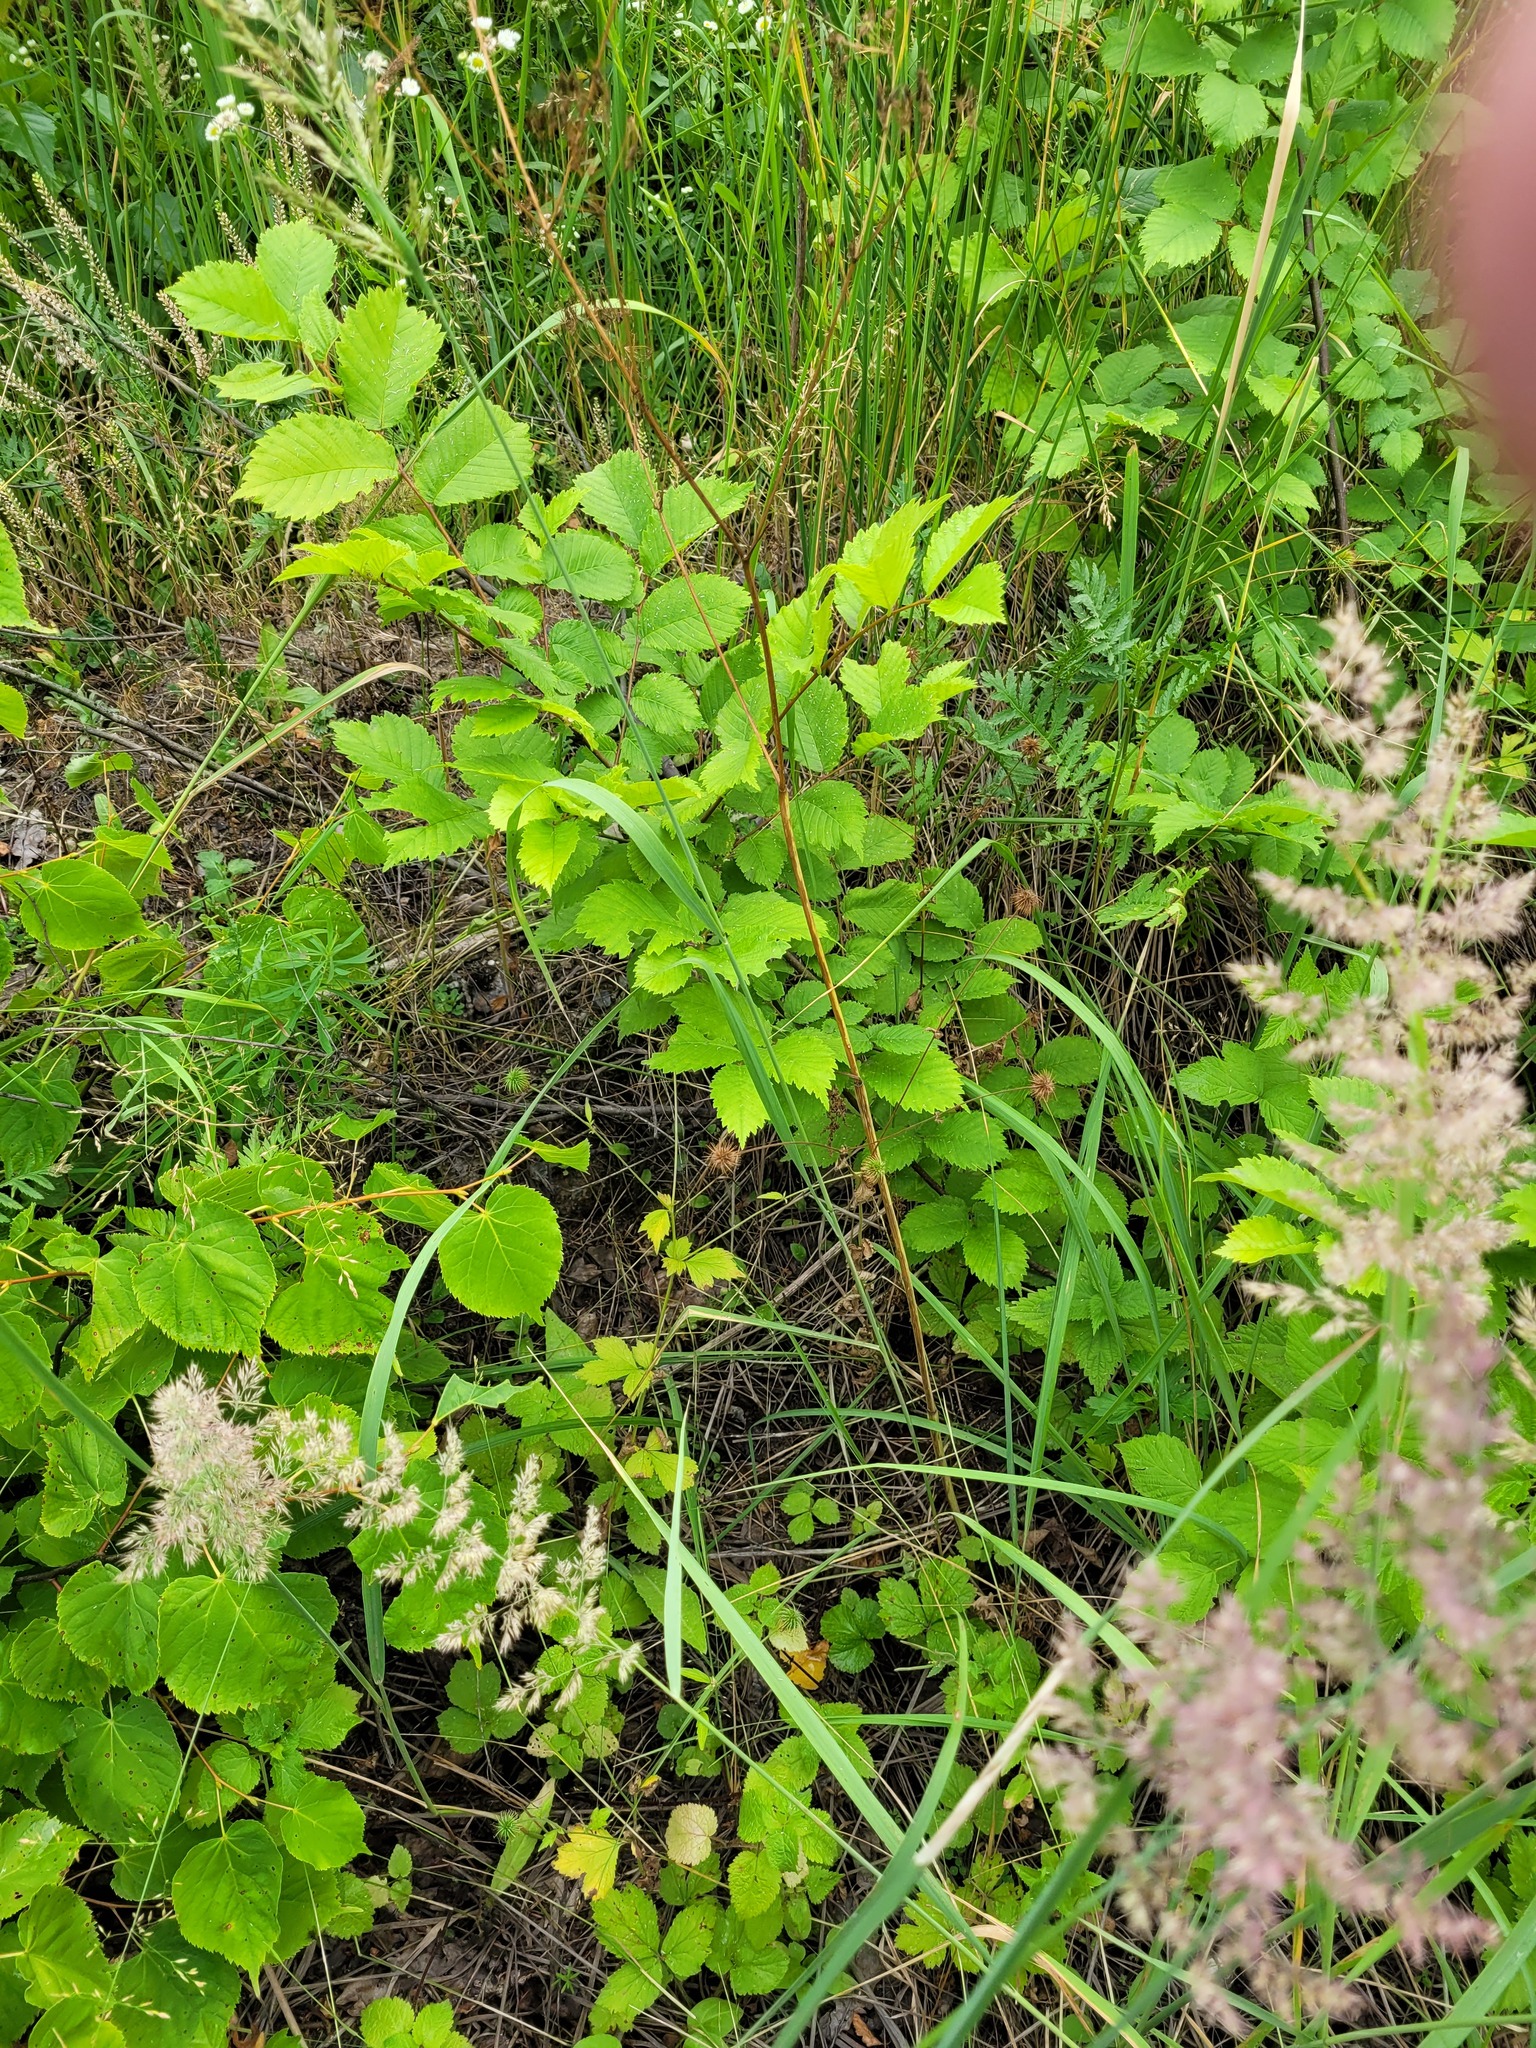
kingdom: Plantae
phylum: Tracheophyta
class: Magnoliopsida
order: Rosales
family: Ulmaceae
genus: Ulmus
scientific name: Ulmus laevis
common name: European white-elm
